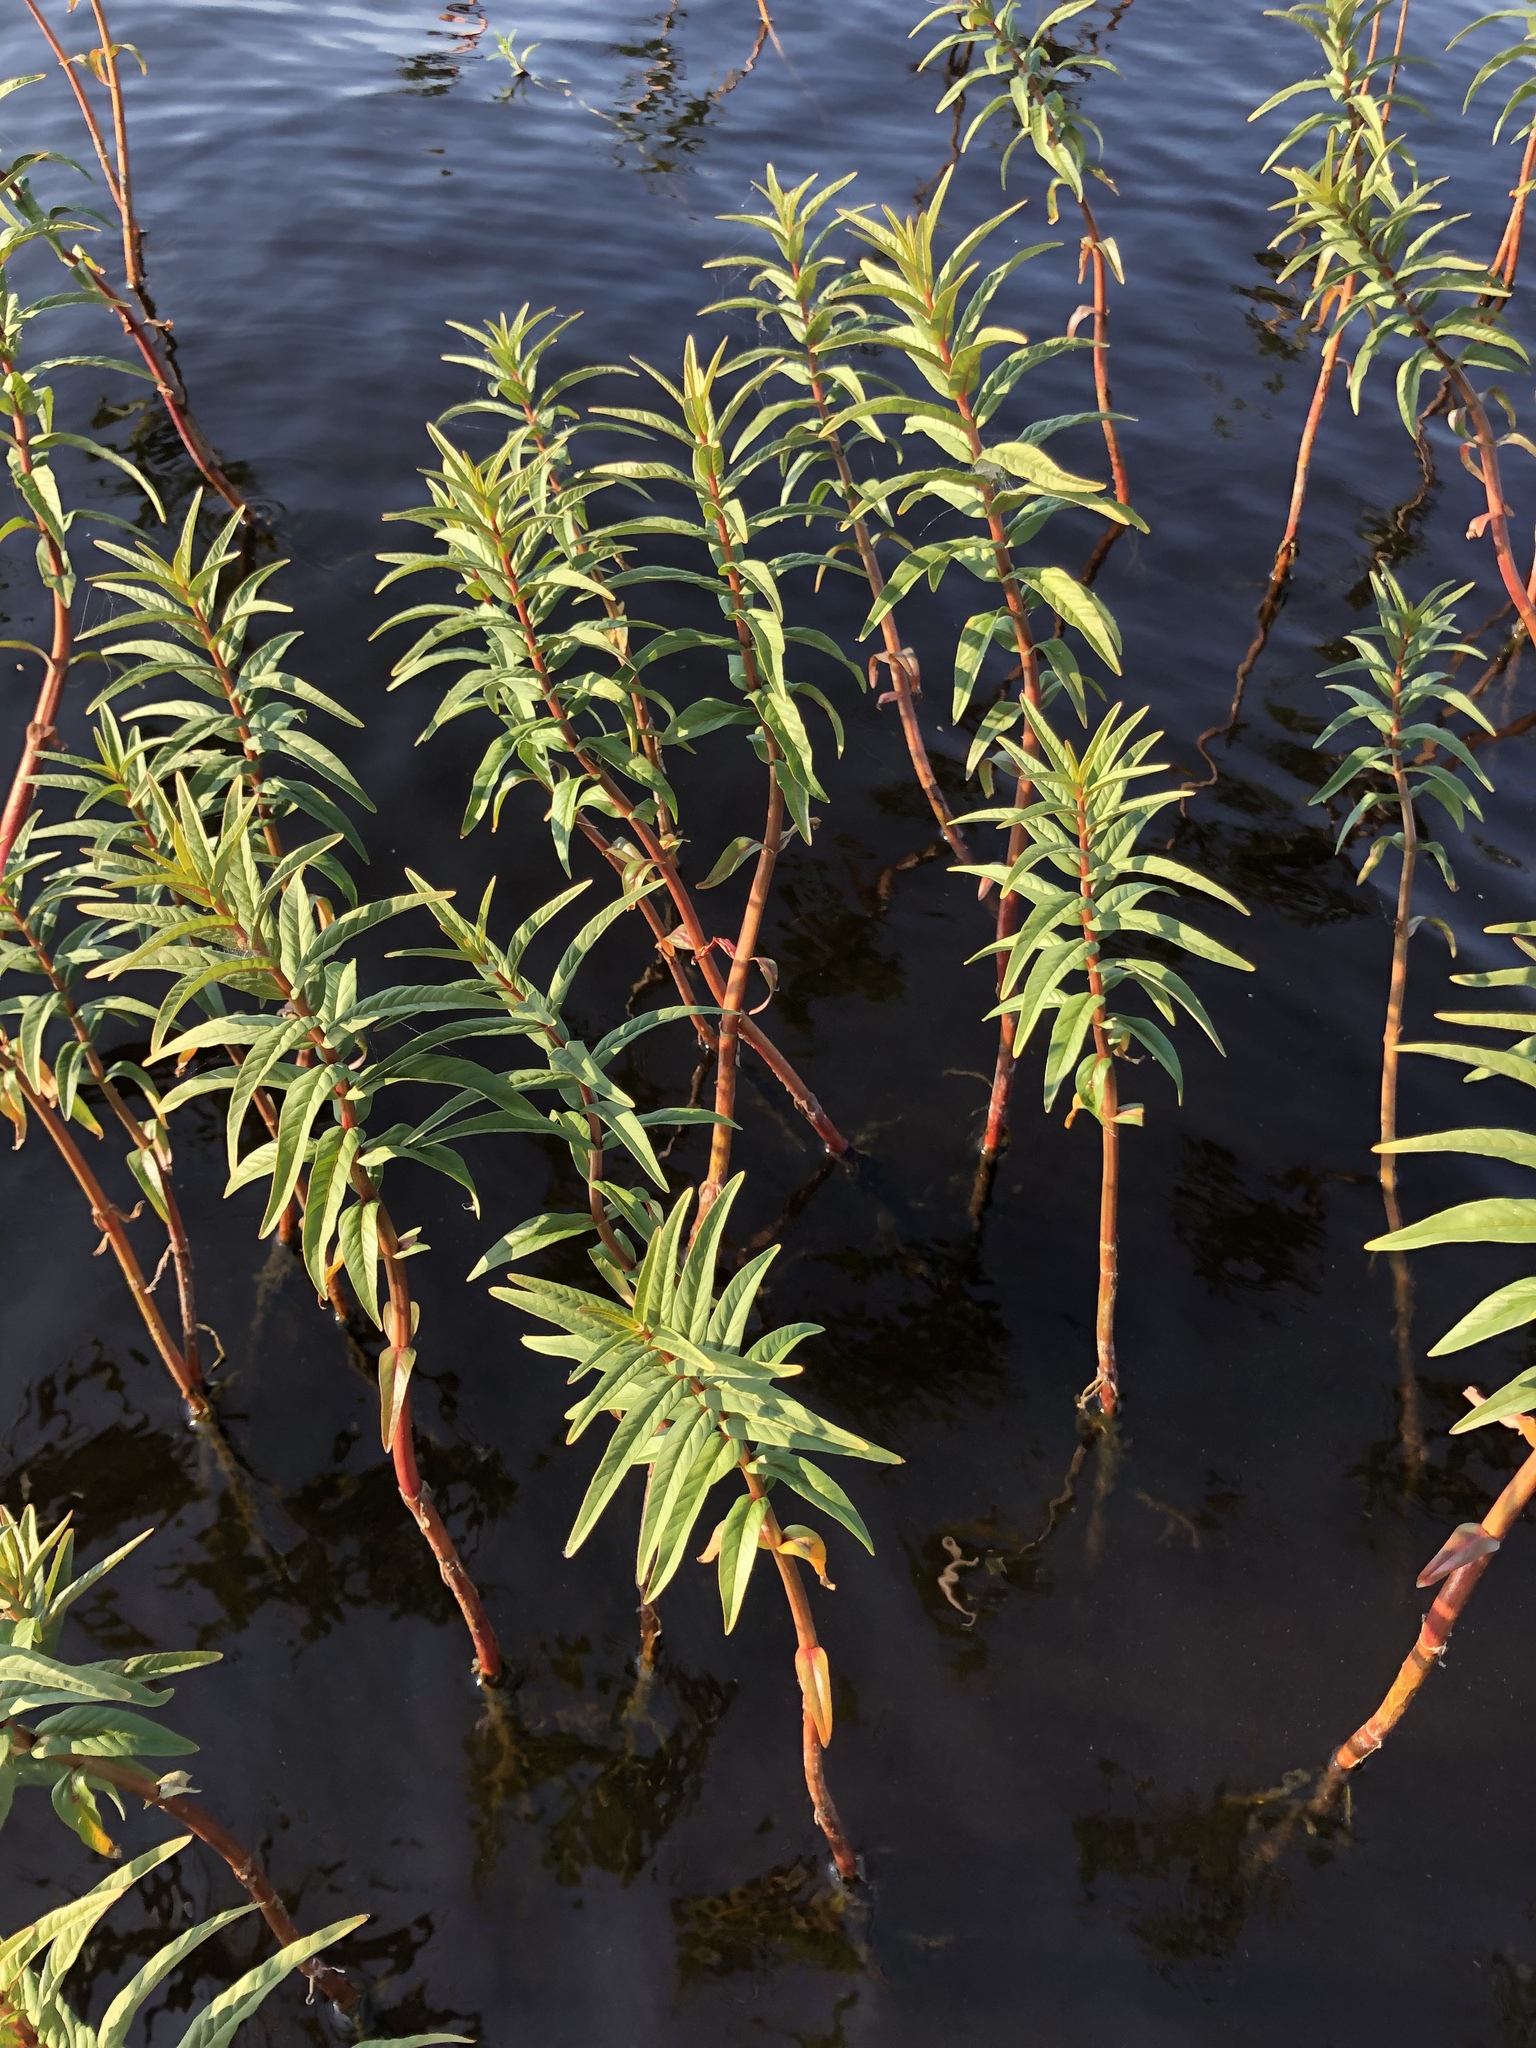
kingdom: Plantae
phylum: Tracheophyta
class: Magnoliopsida
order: Ericales
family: Primulaceae
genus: Lysimachia
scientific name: Lysimachia thyrsiflora
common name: Tufted loosestrife
